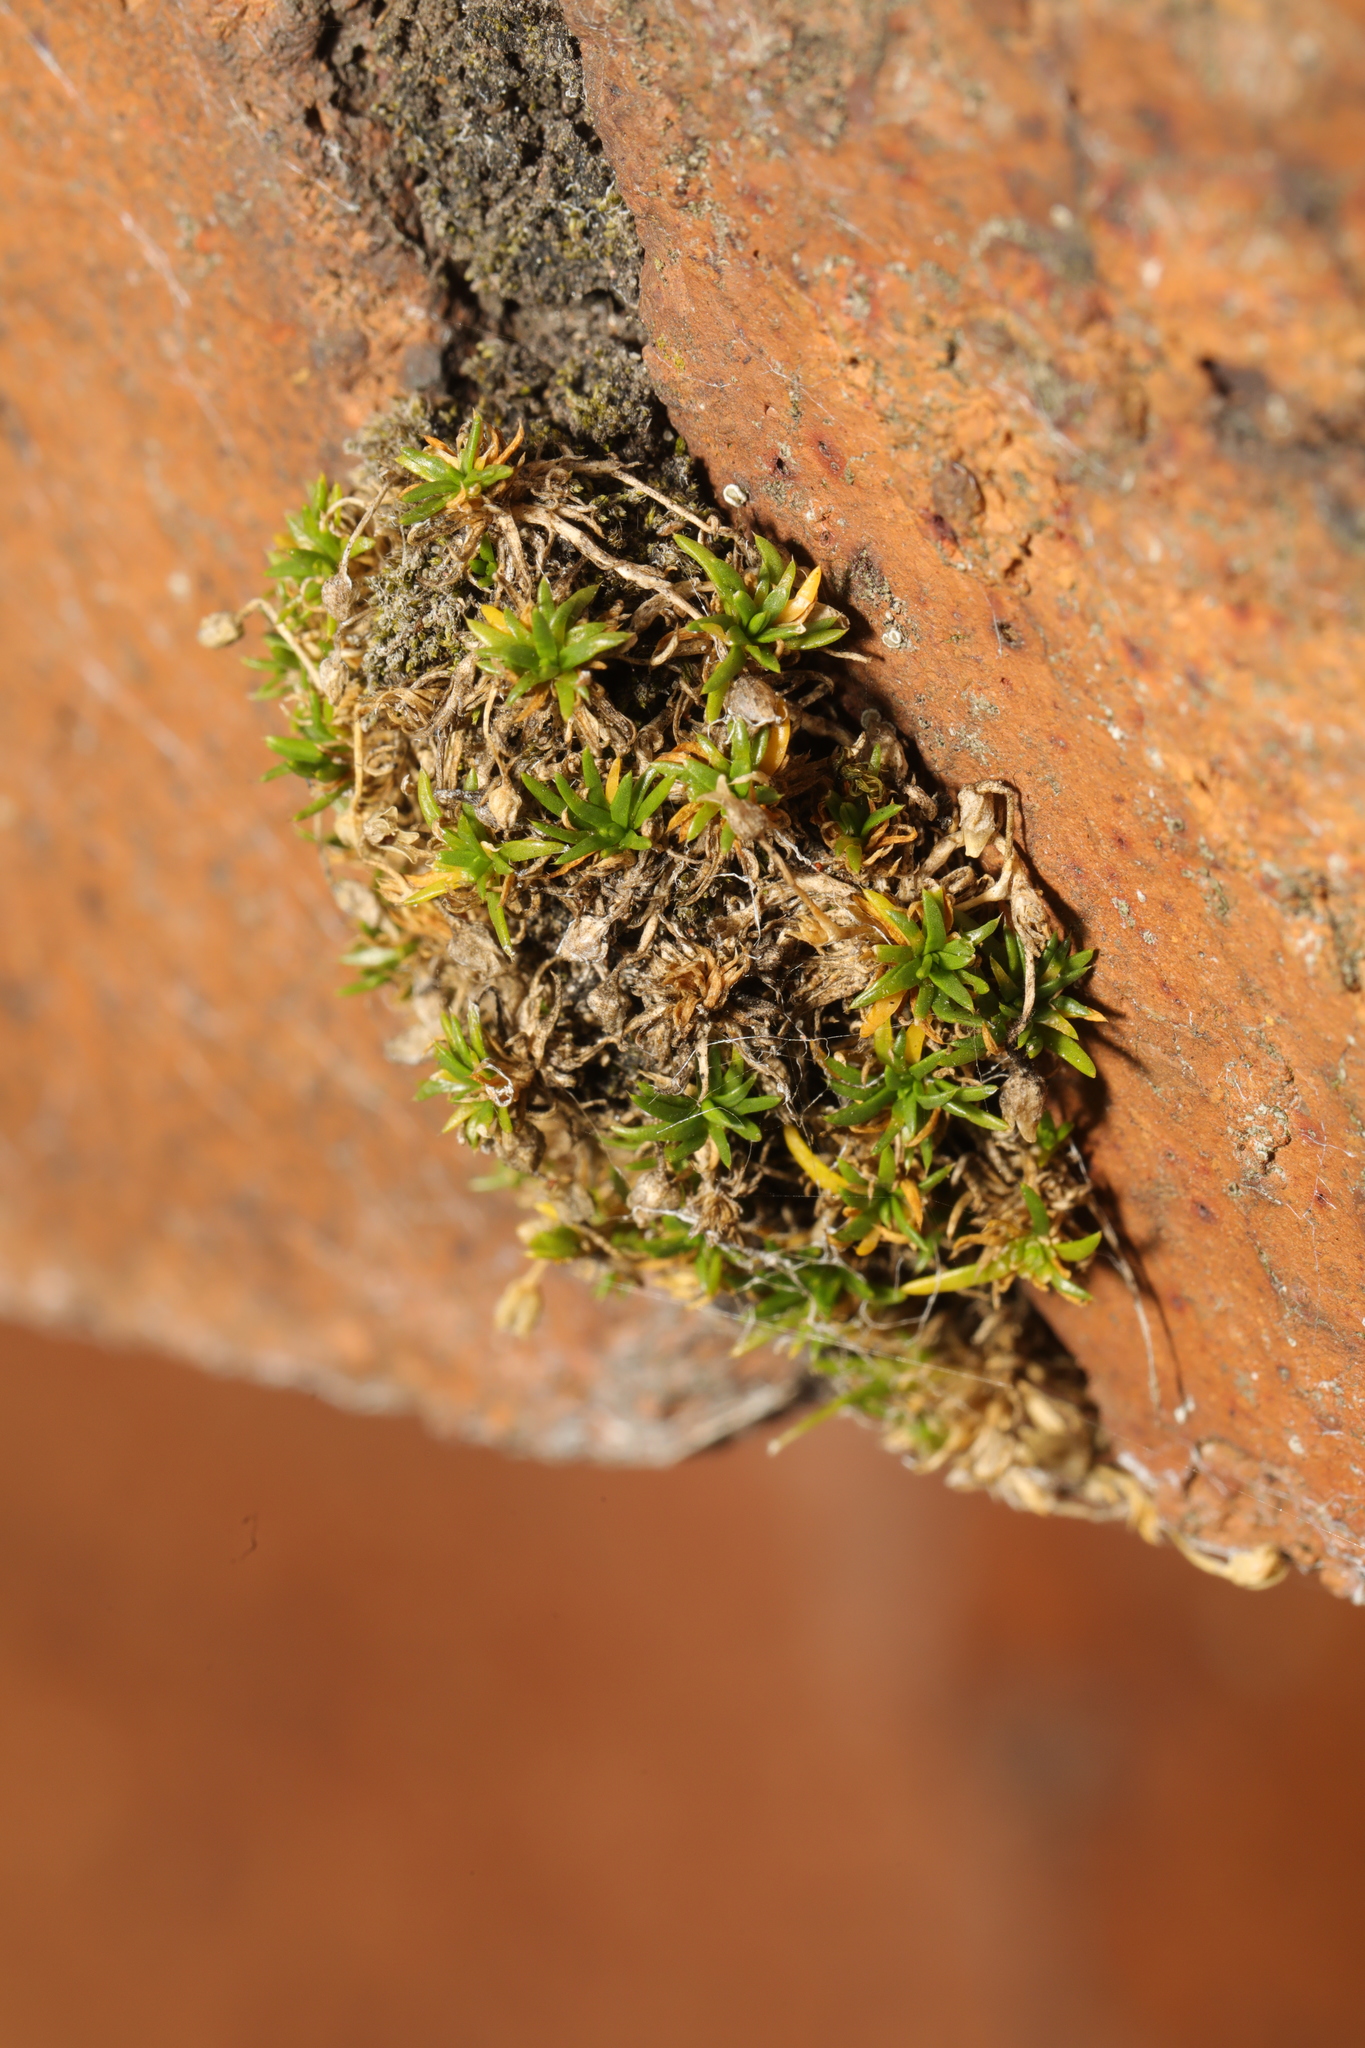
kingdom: Plantae
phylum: Tracheophyta
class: Magnoliopsida
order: Caryophyllales
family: Caryophyllaceae
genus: Sagina
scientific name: Sagina procumbens
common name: Procumbent pearlwort
